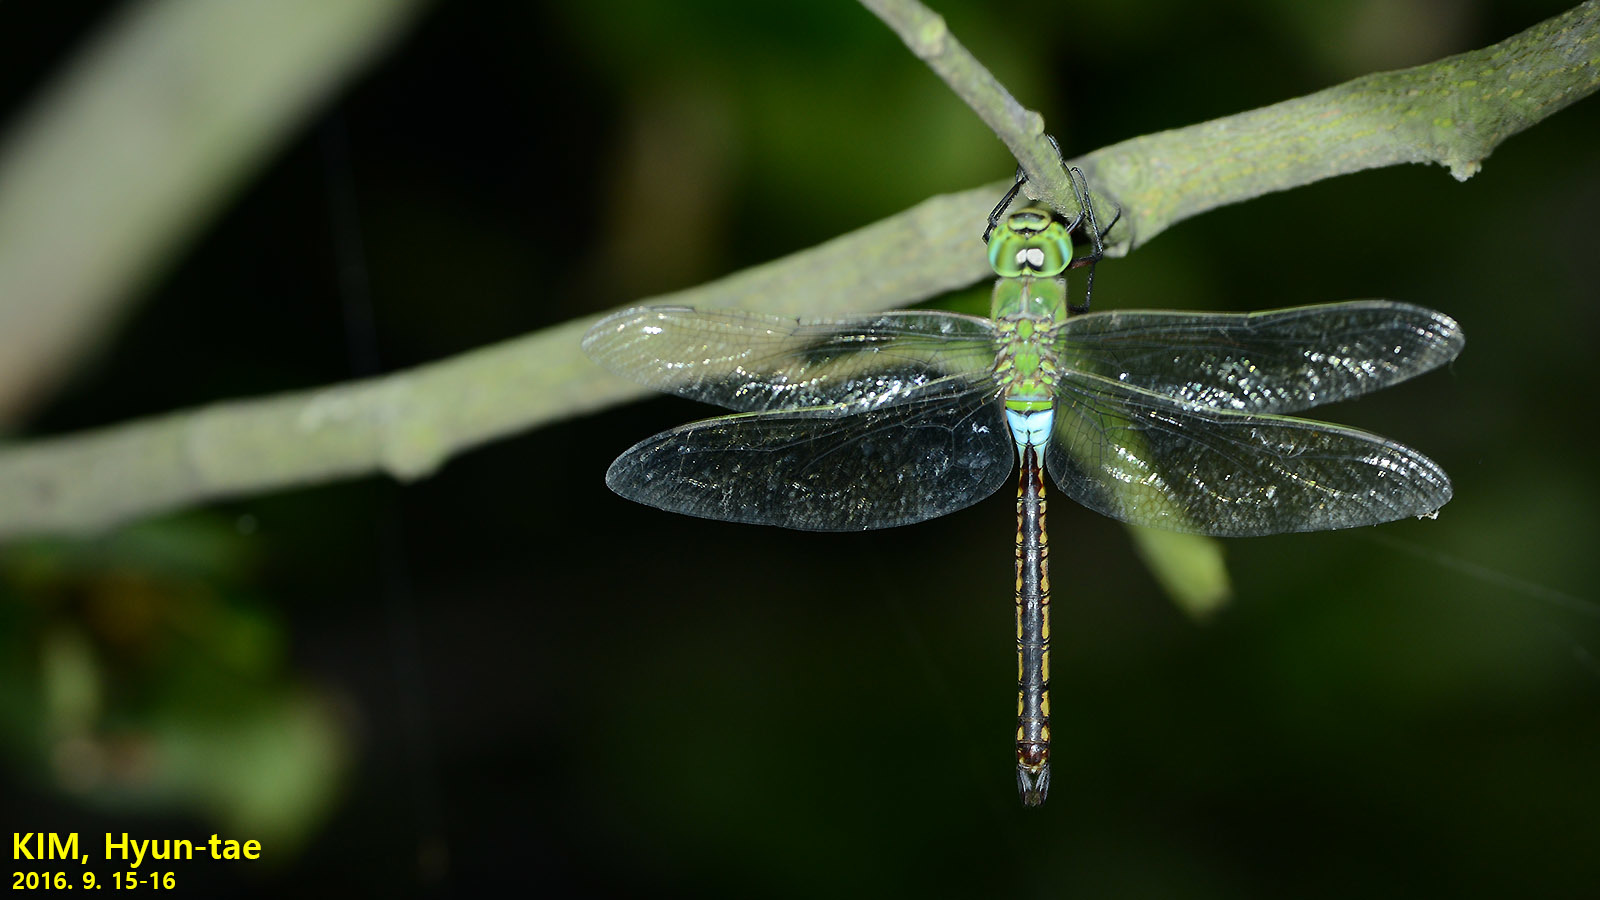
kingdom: Animalia
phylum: Arthropoda
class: Insecta
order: Odonata
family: Aeshnidae
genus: Anax
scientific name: Anax julius
